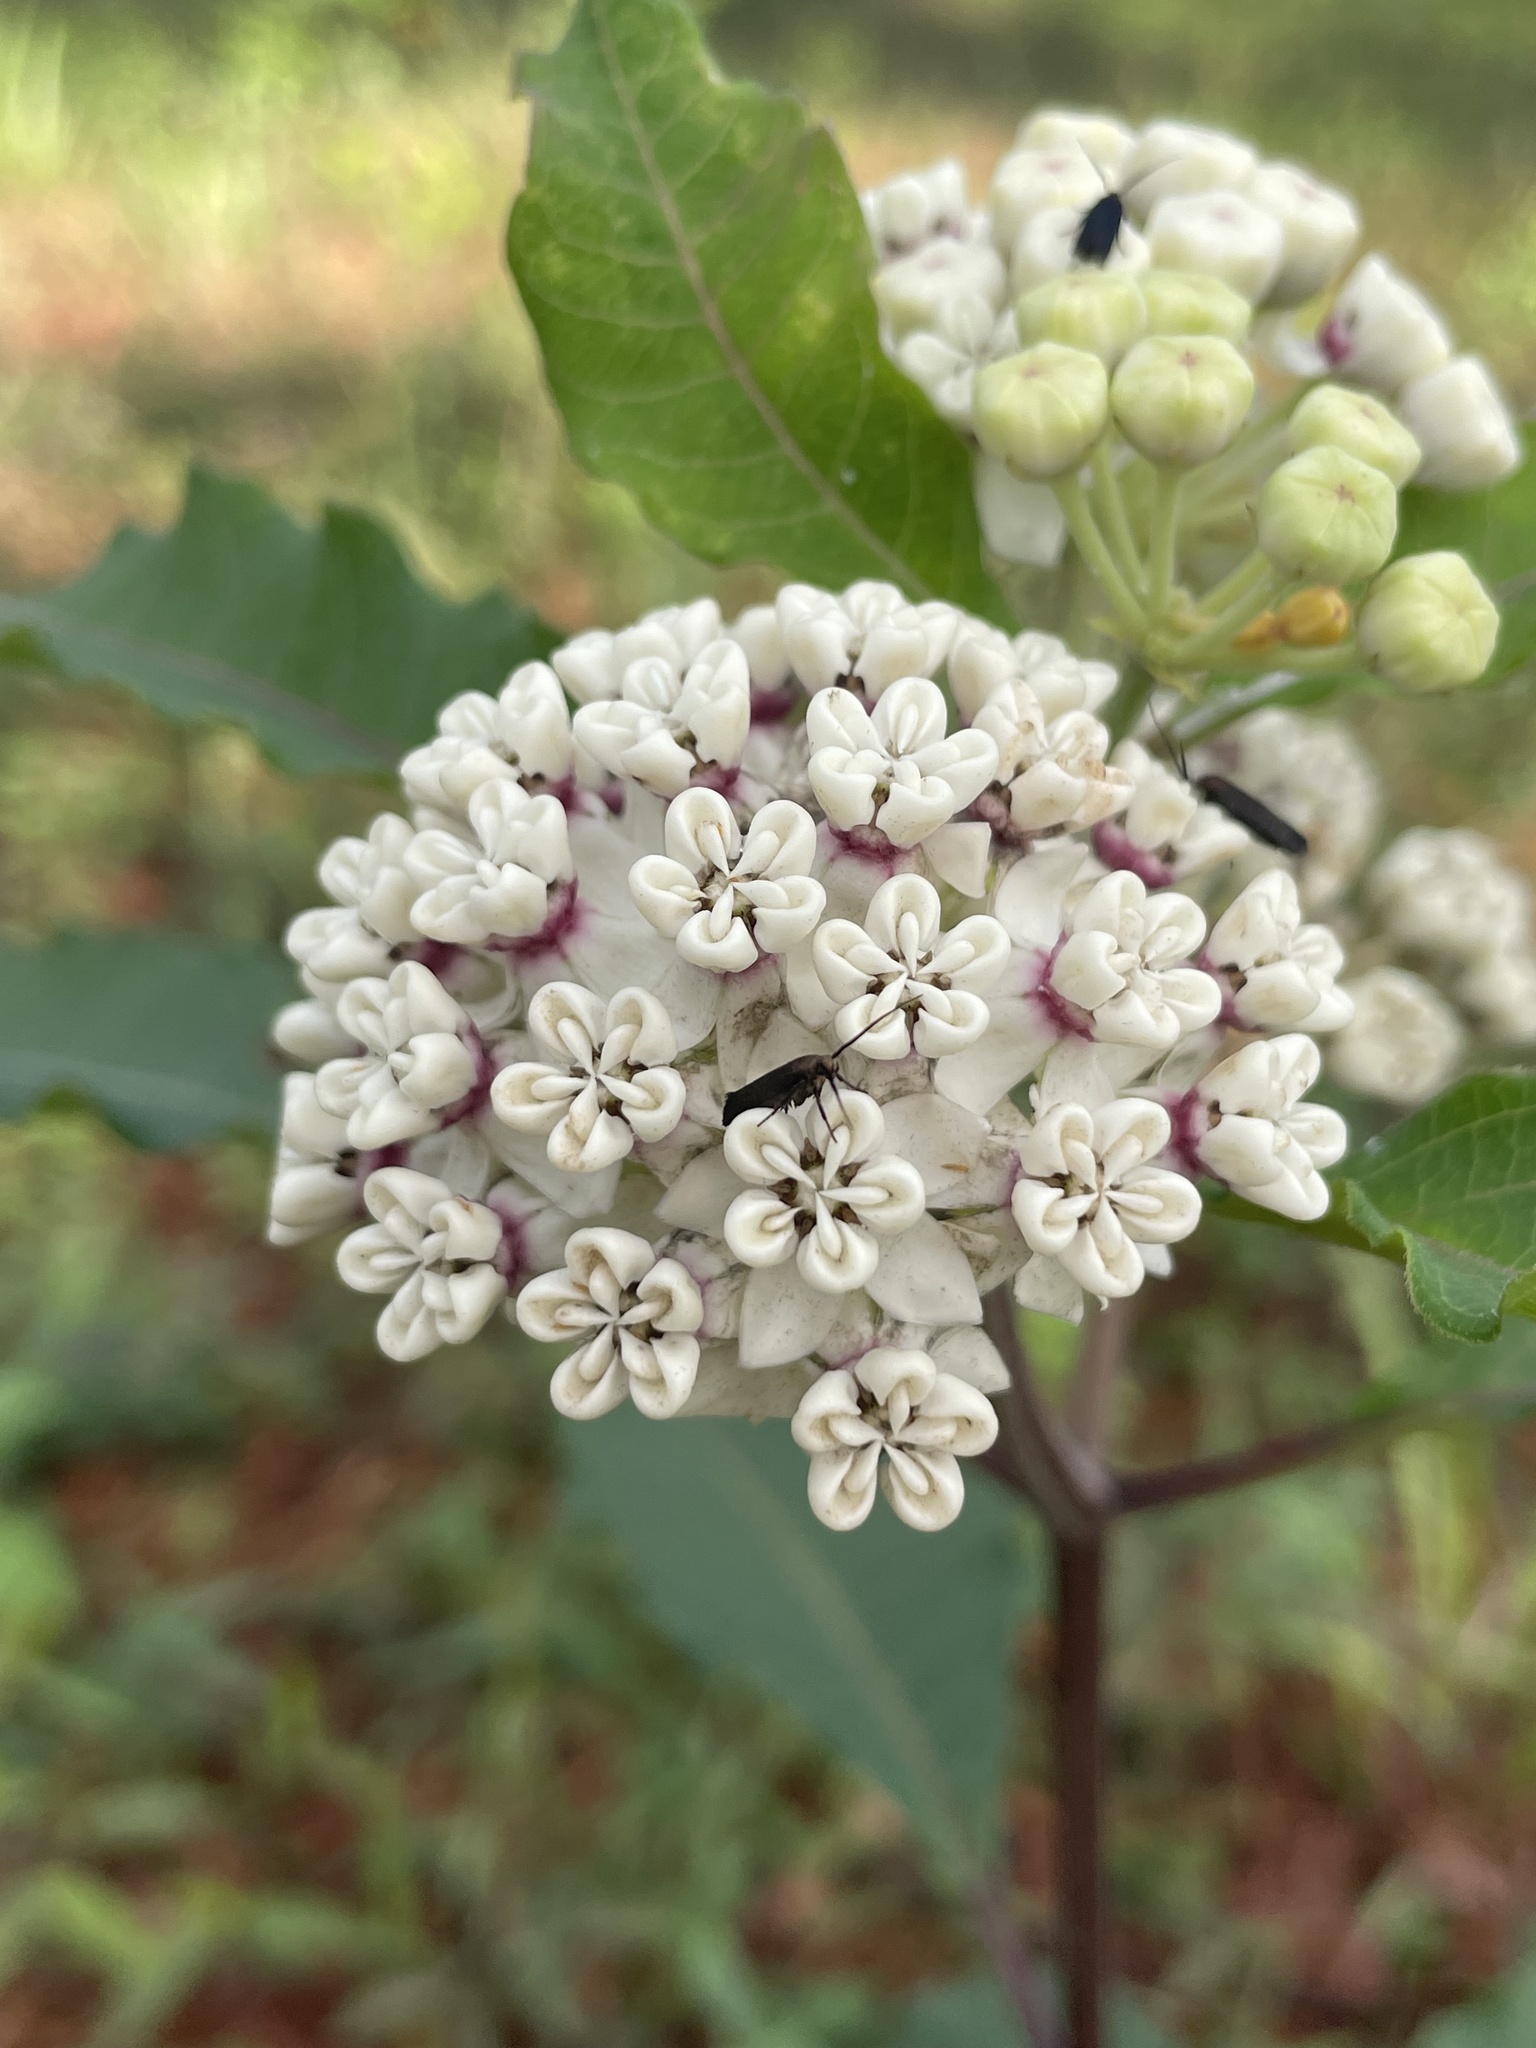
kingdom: Plantae
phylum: Tracheophyta
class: Magnoliopsida
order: Gentianales
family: Apocynaceae
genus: Asclepias
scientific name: Asclepias variegata
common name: Variegated milkweed
